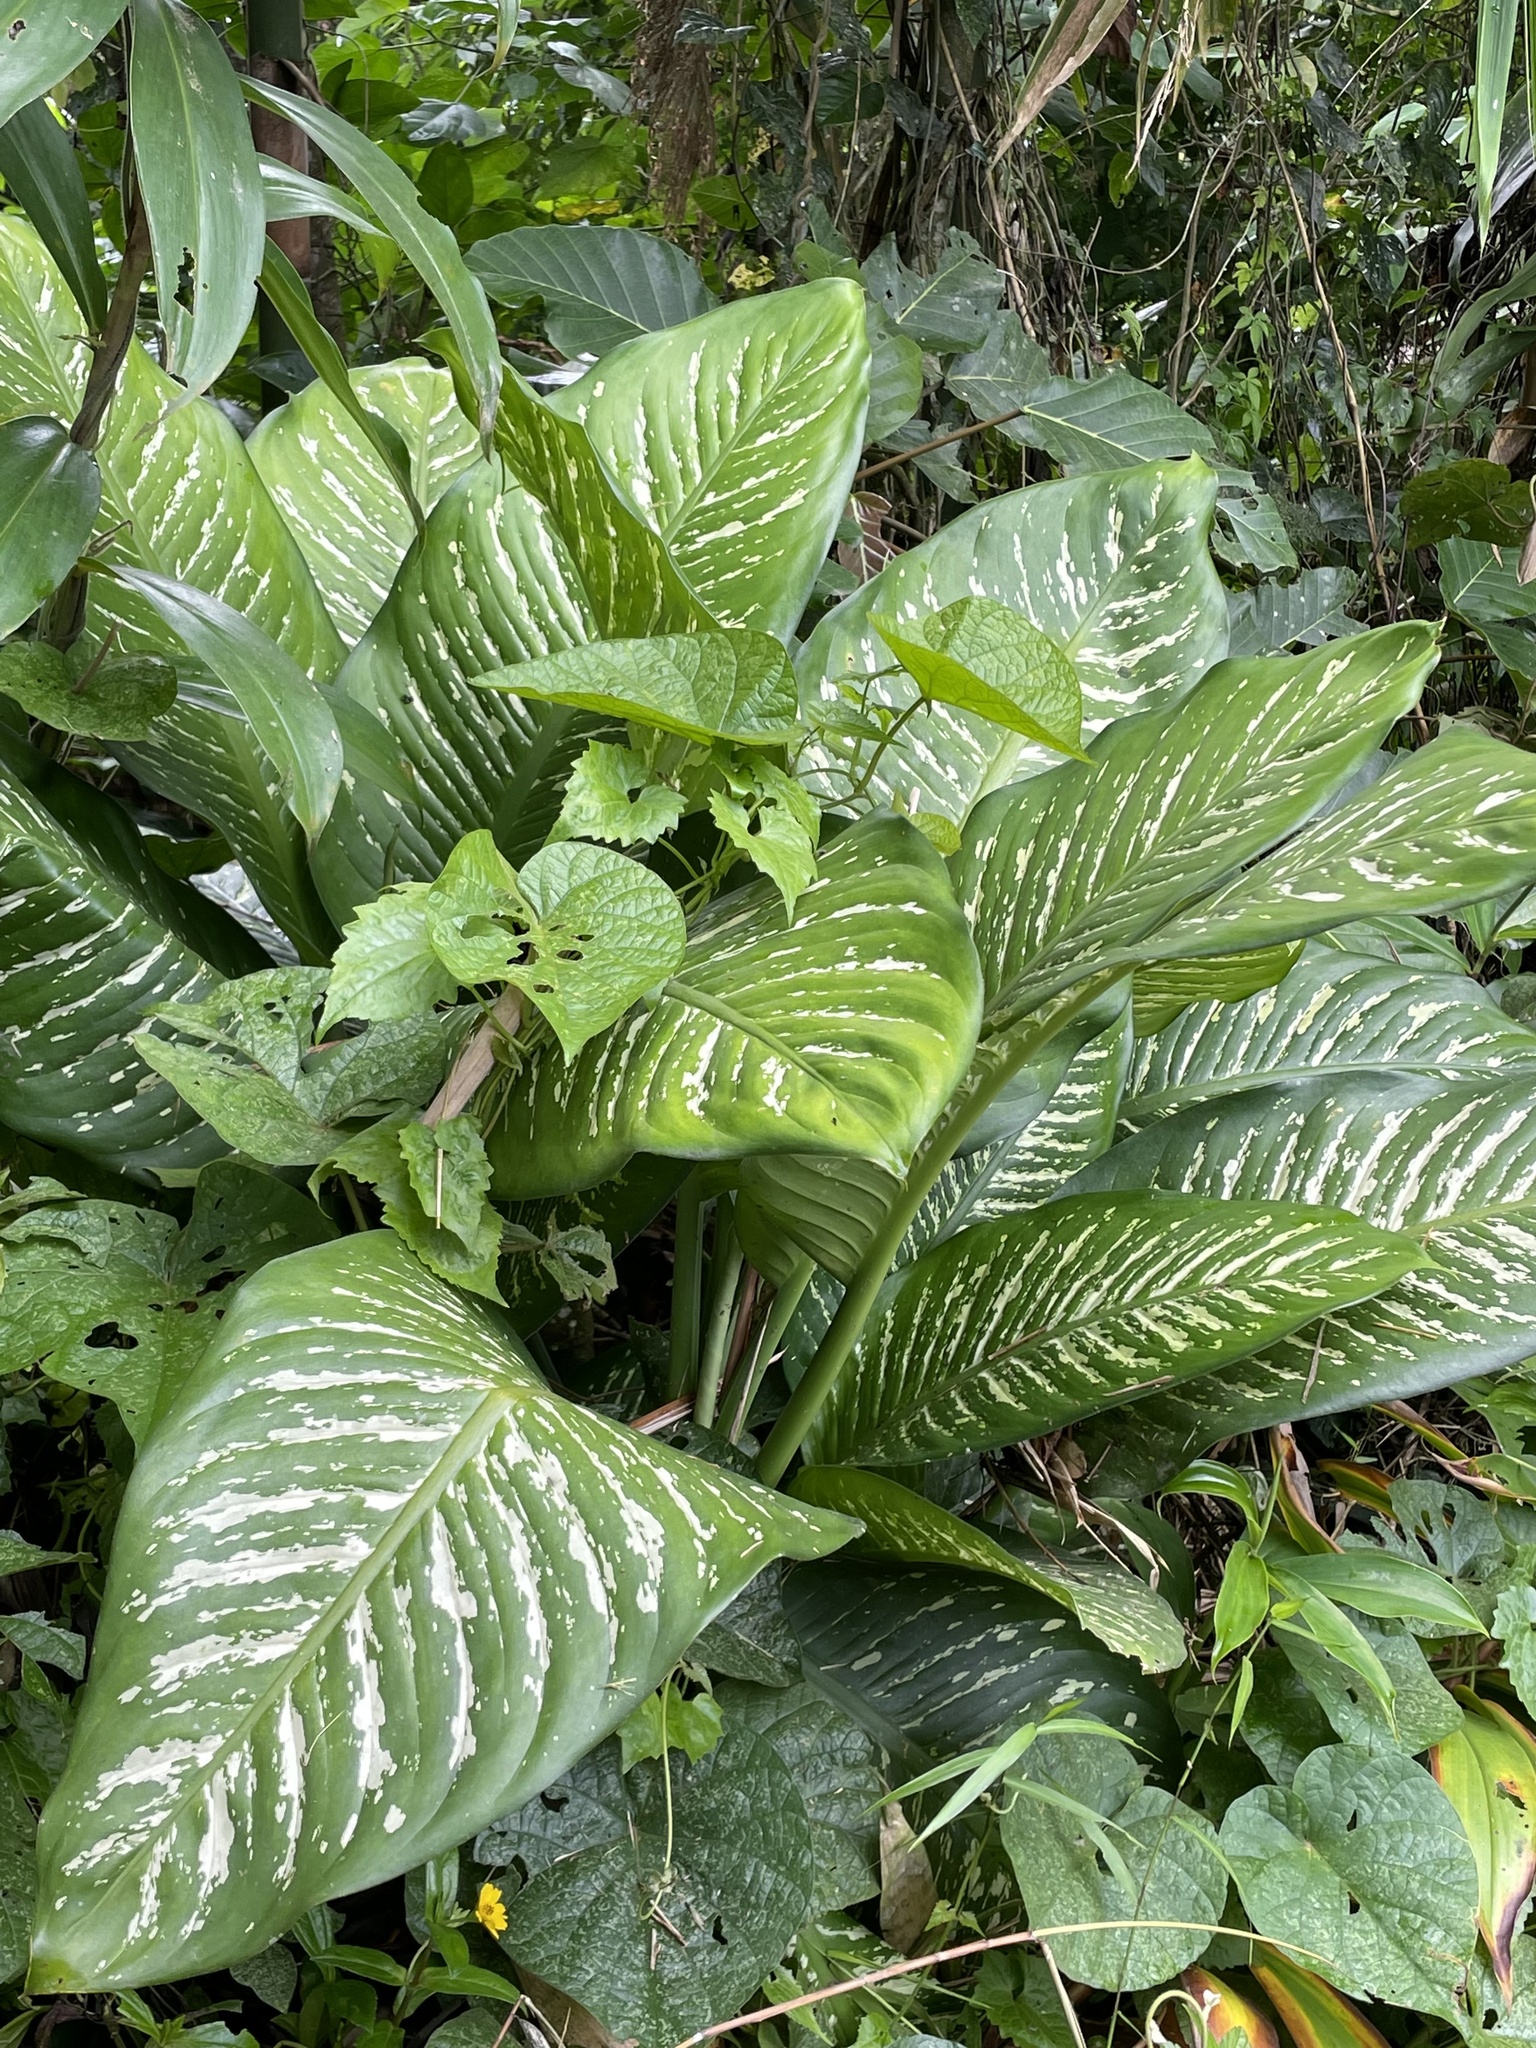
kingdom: Plantae
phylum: Tracheophyta
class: Liliopsida
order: Alismatales
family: Araceae
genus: Dieffenbachia
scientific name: Dieffenbachia seguine
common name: Dumbcane
